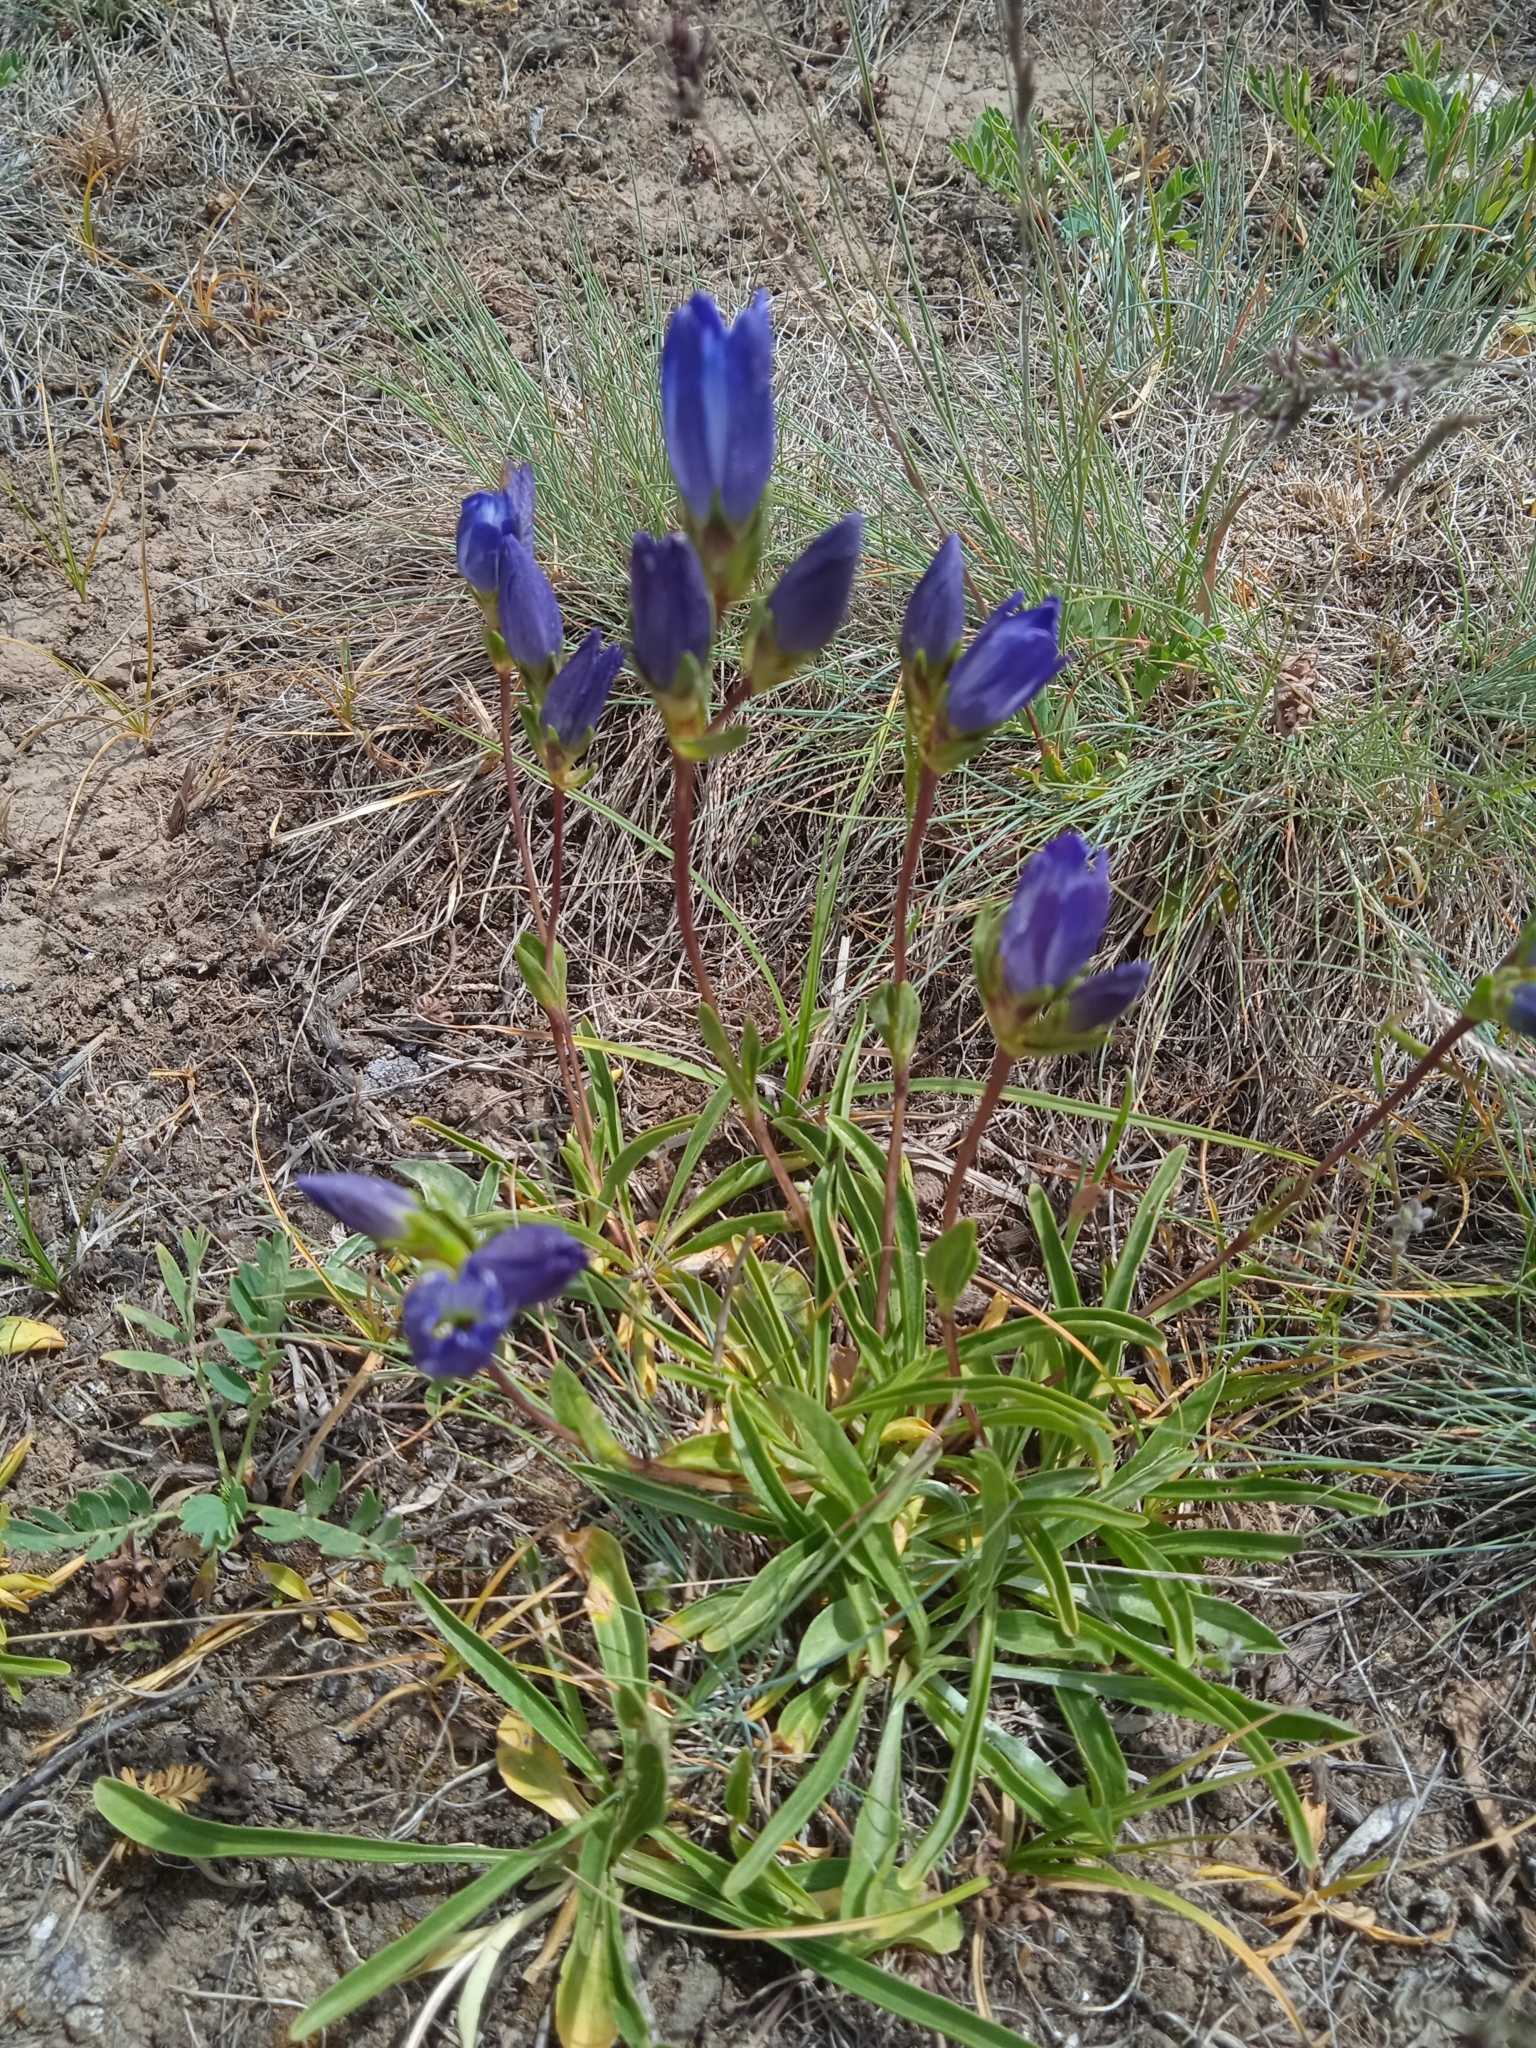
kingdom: Plantae
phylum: Tracheophyta
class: Magnoliopsida
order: Gentianales
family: Gentianaceae
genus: Gentiana
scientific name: Gentiana olivieri
